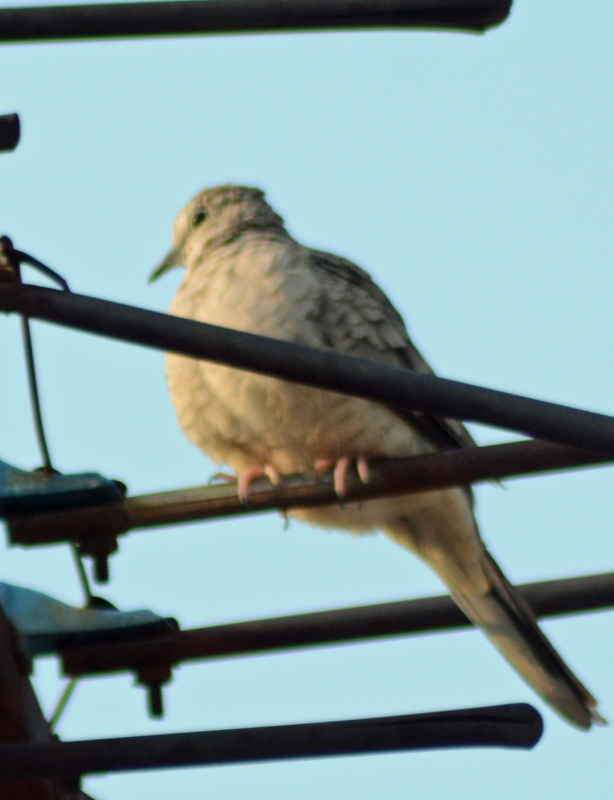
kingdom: Animalia
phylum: Chordata
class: Aves
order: Columbiformes
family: Columbidae
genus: Columbina
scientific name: Columbina inca
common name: Inca dove
